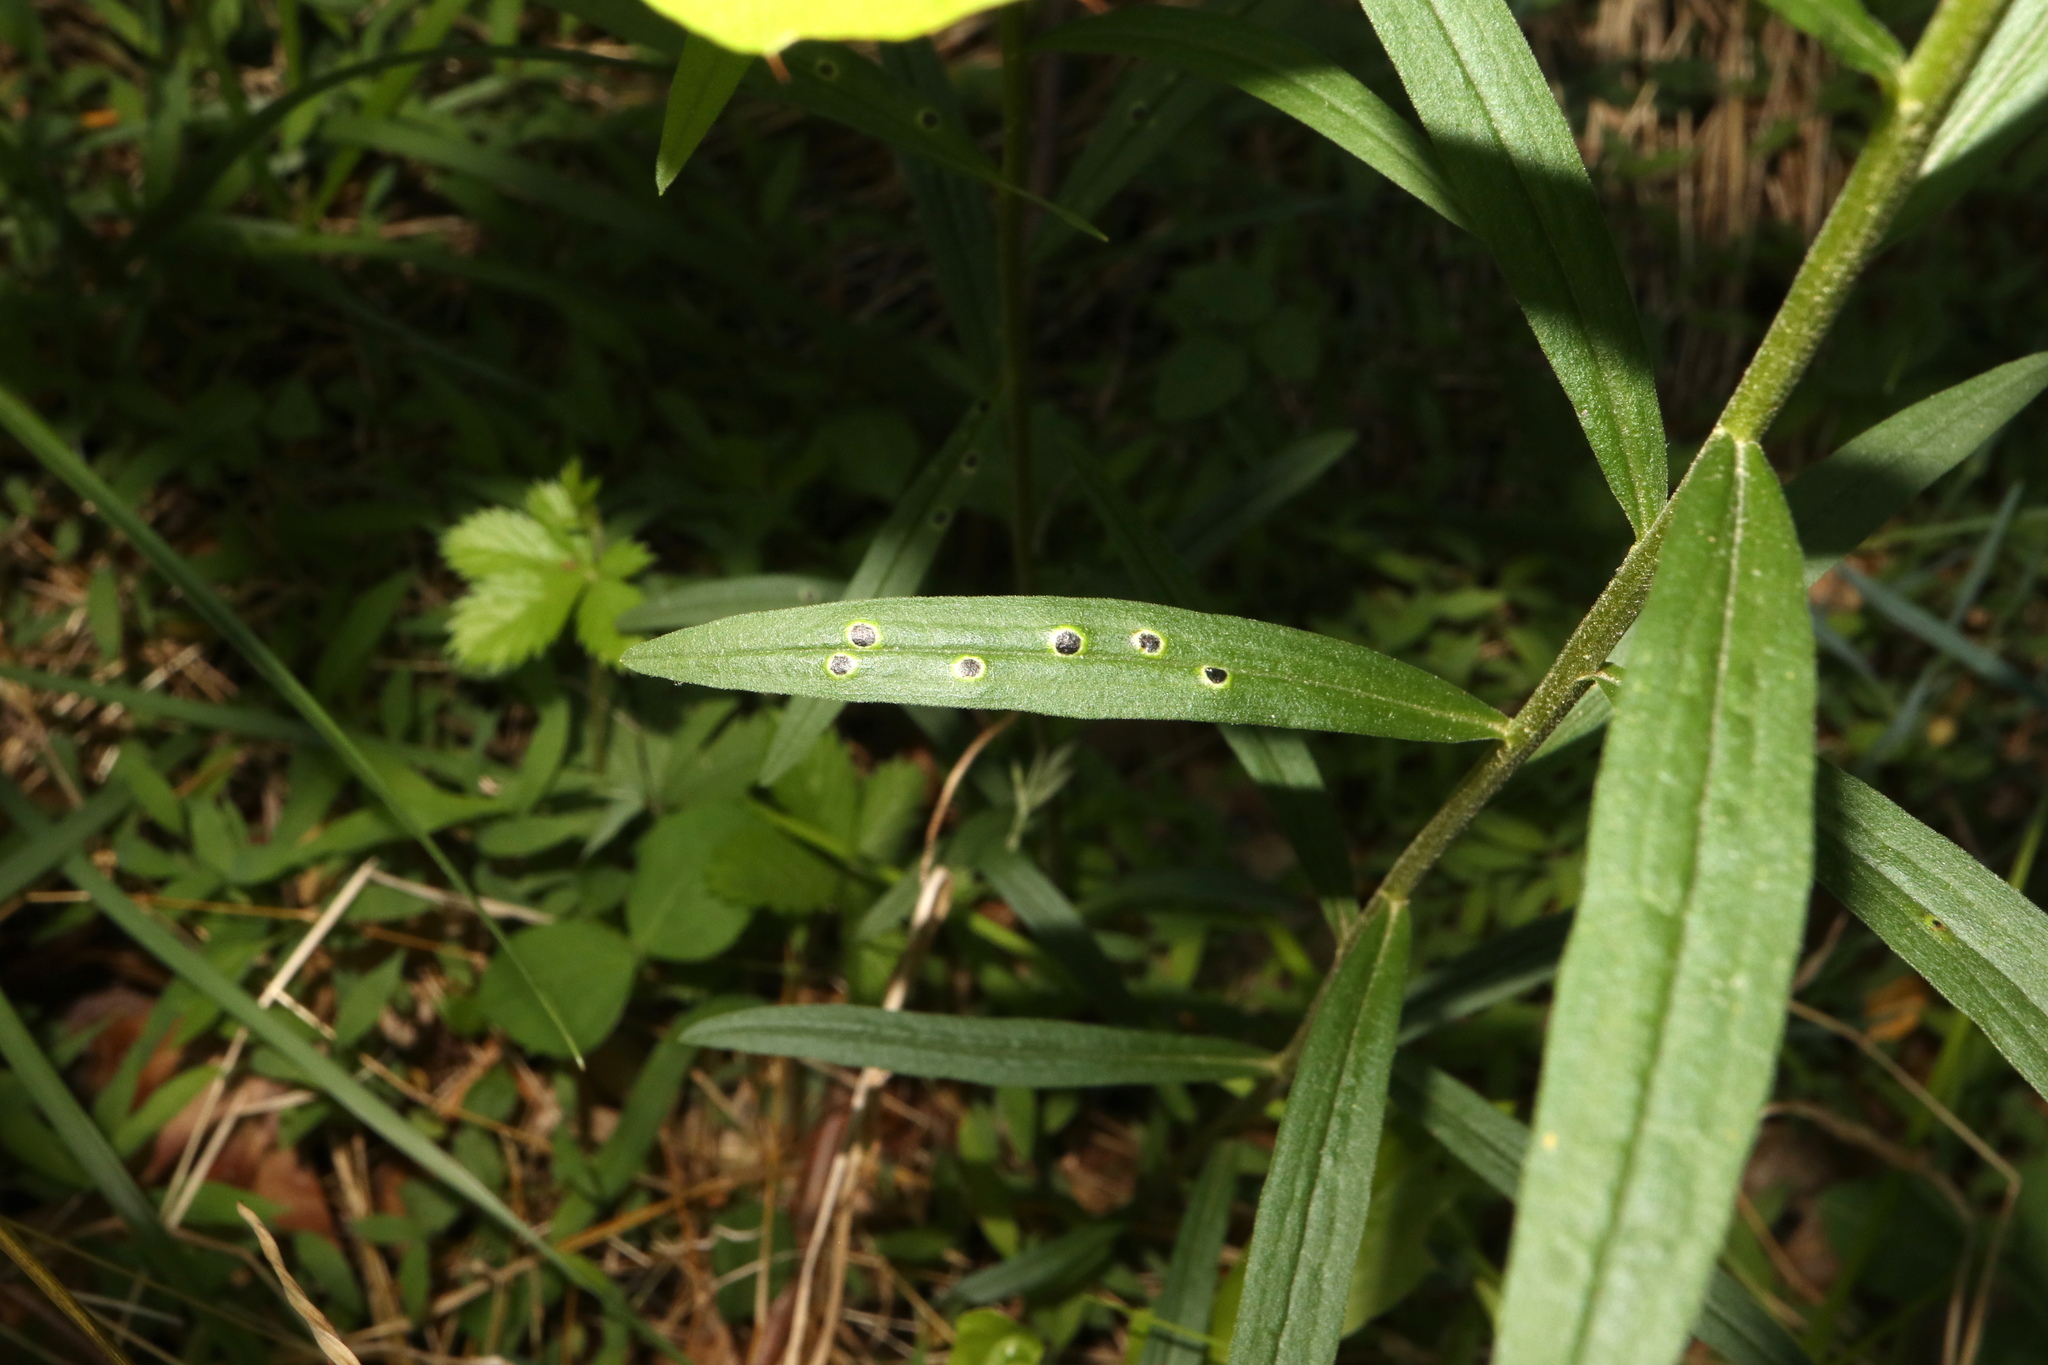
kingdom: Animalia
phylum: Arthropoda
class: Insecta
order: Diptera
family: Cecidomyiidae
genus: Asteromyia
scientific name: Asteromyia euthamiae
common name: Euthamia leaf gall midge
